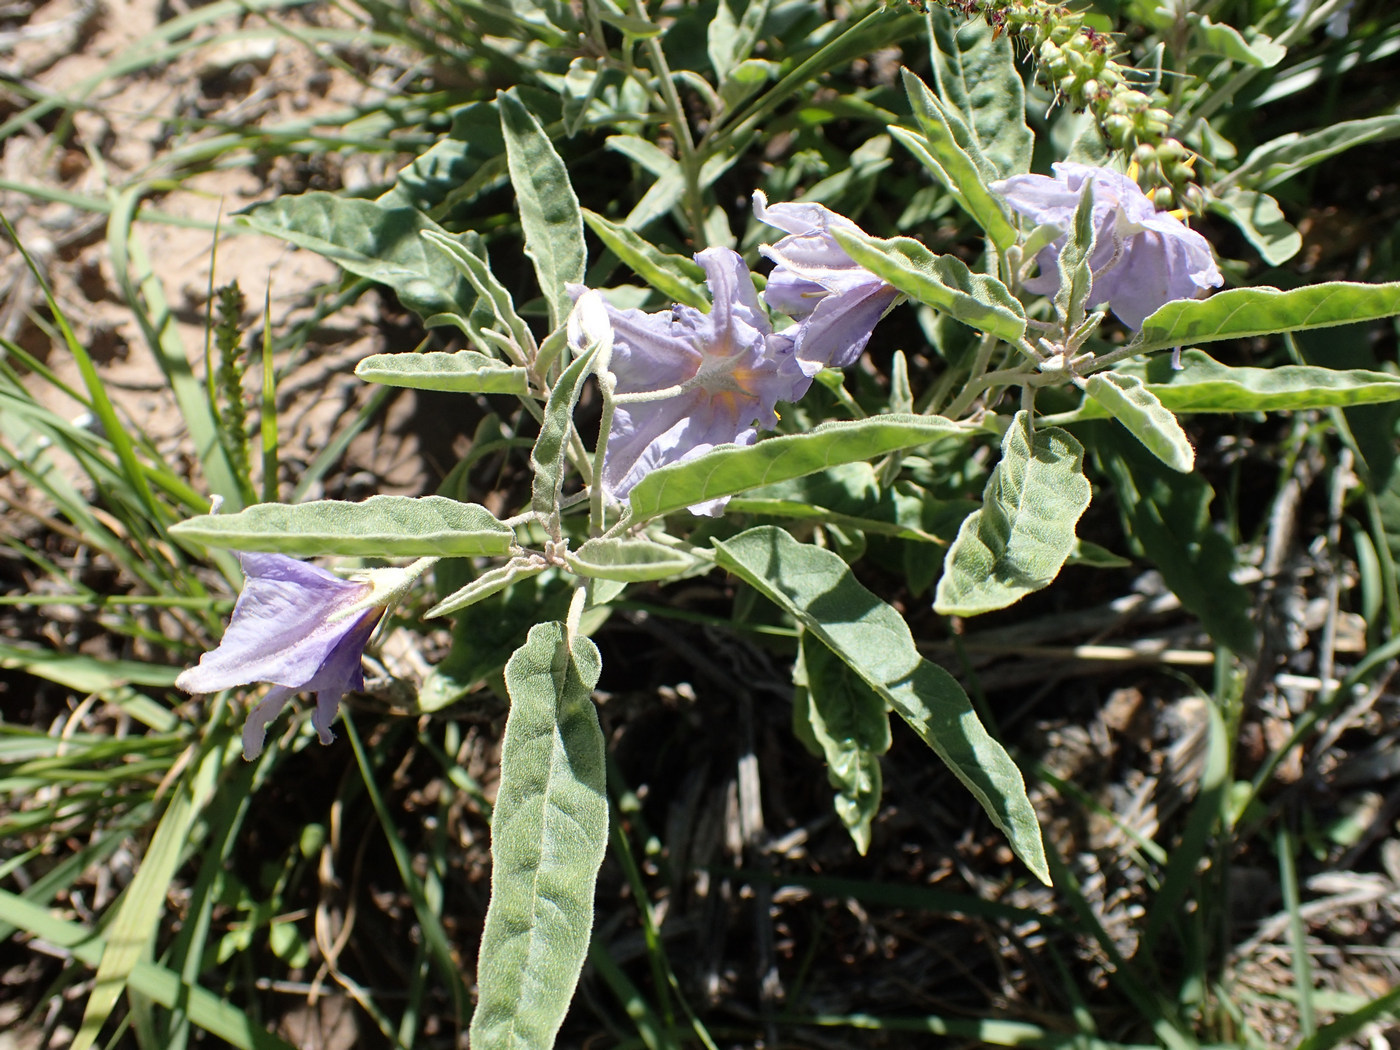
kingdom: Plantae
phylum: Tracheophyta
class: Magnoliopsida
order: Solanales
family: Solanaceae
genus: Solanum
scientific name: Solanum elaeagnifolium
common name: Silverleaf nightshade
